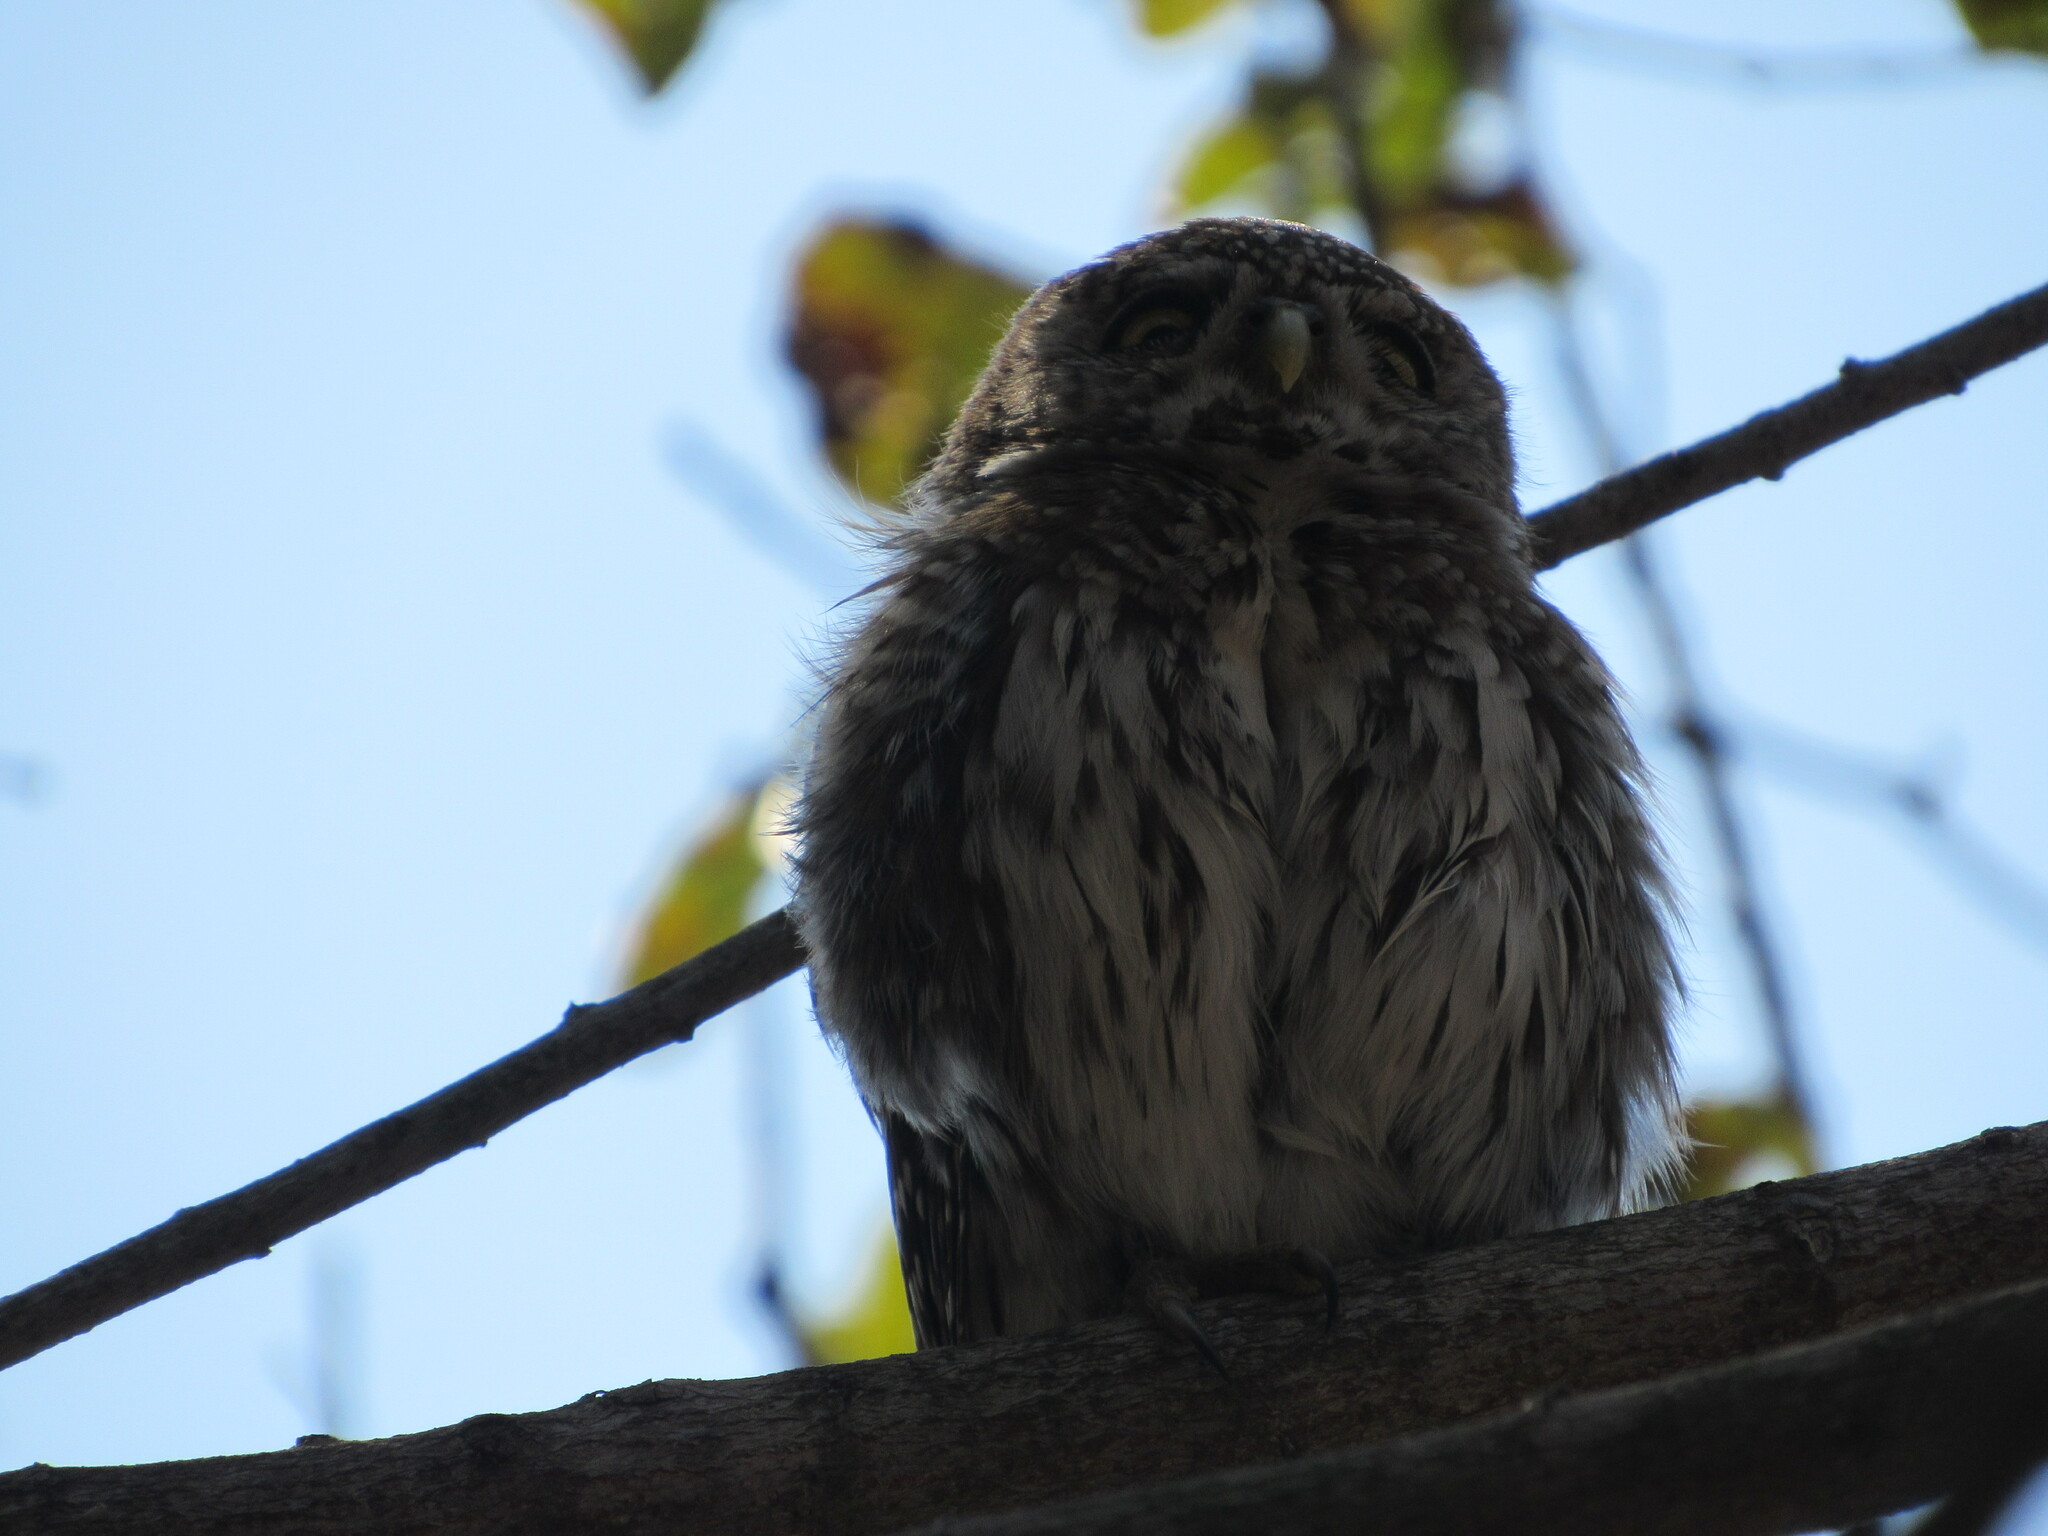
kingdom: Animalia
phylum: Chordata
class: Aves
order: Strigiformes
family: Strigidae
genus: Glaucidium
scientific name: Glaucidium perlatum
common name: Pearl-spotted owlet
